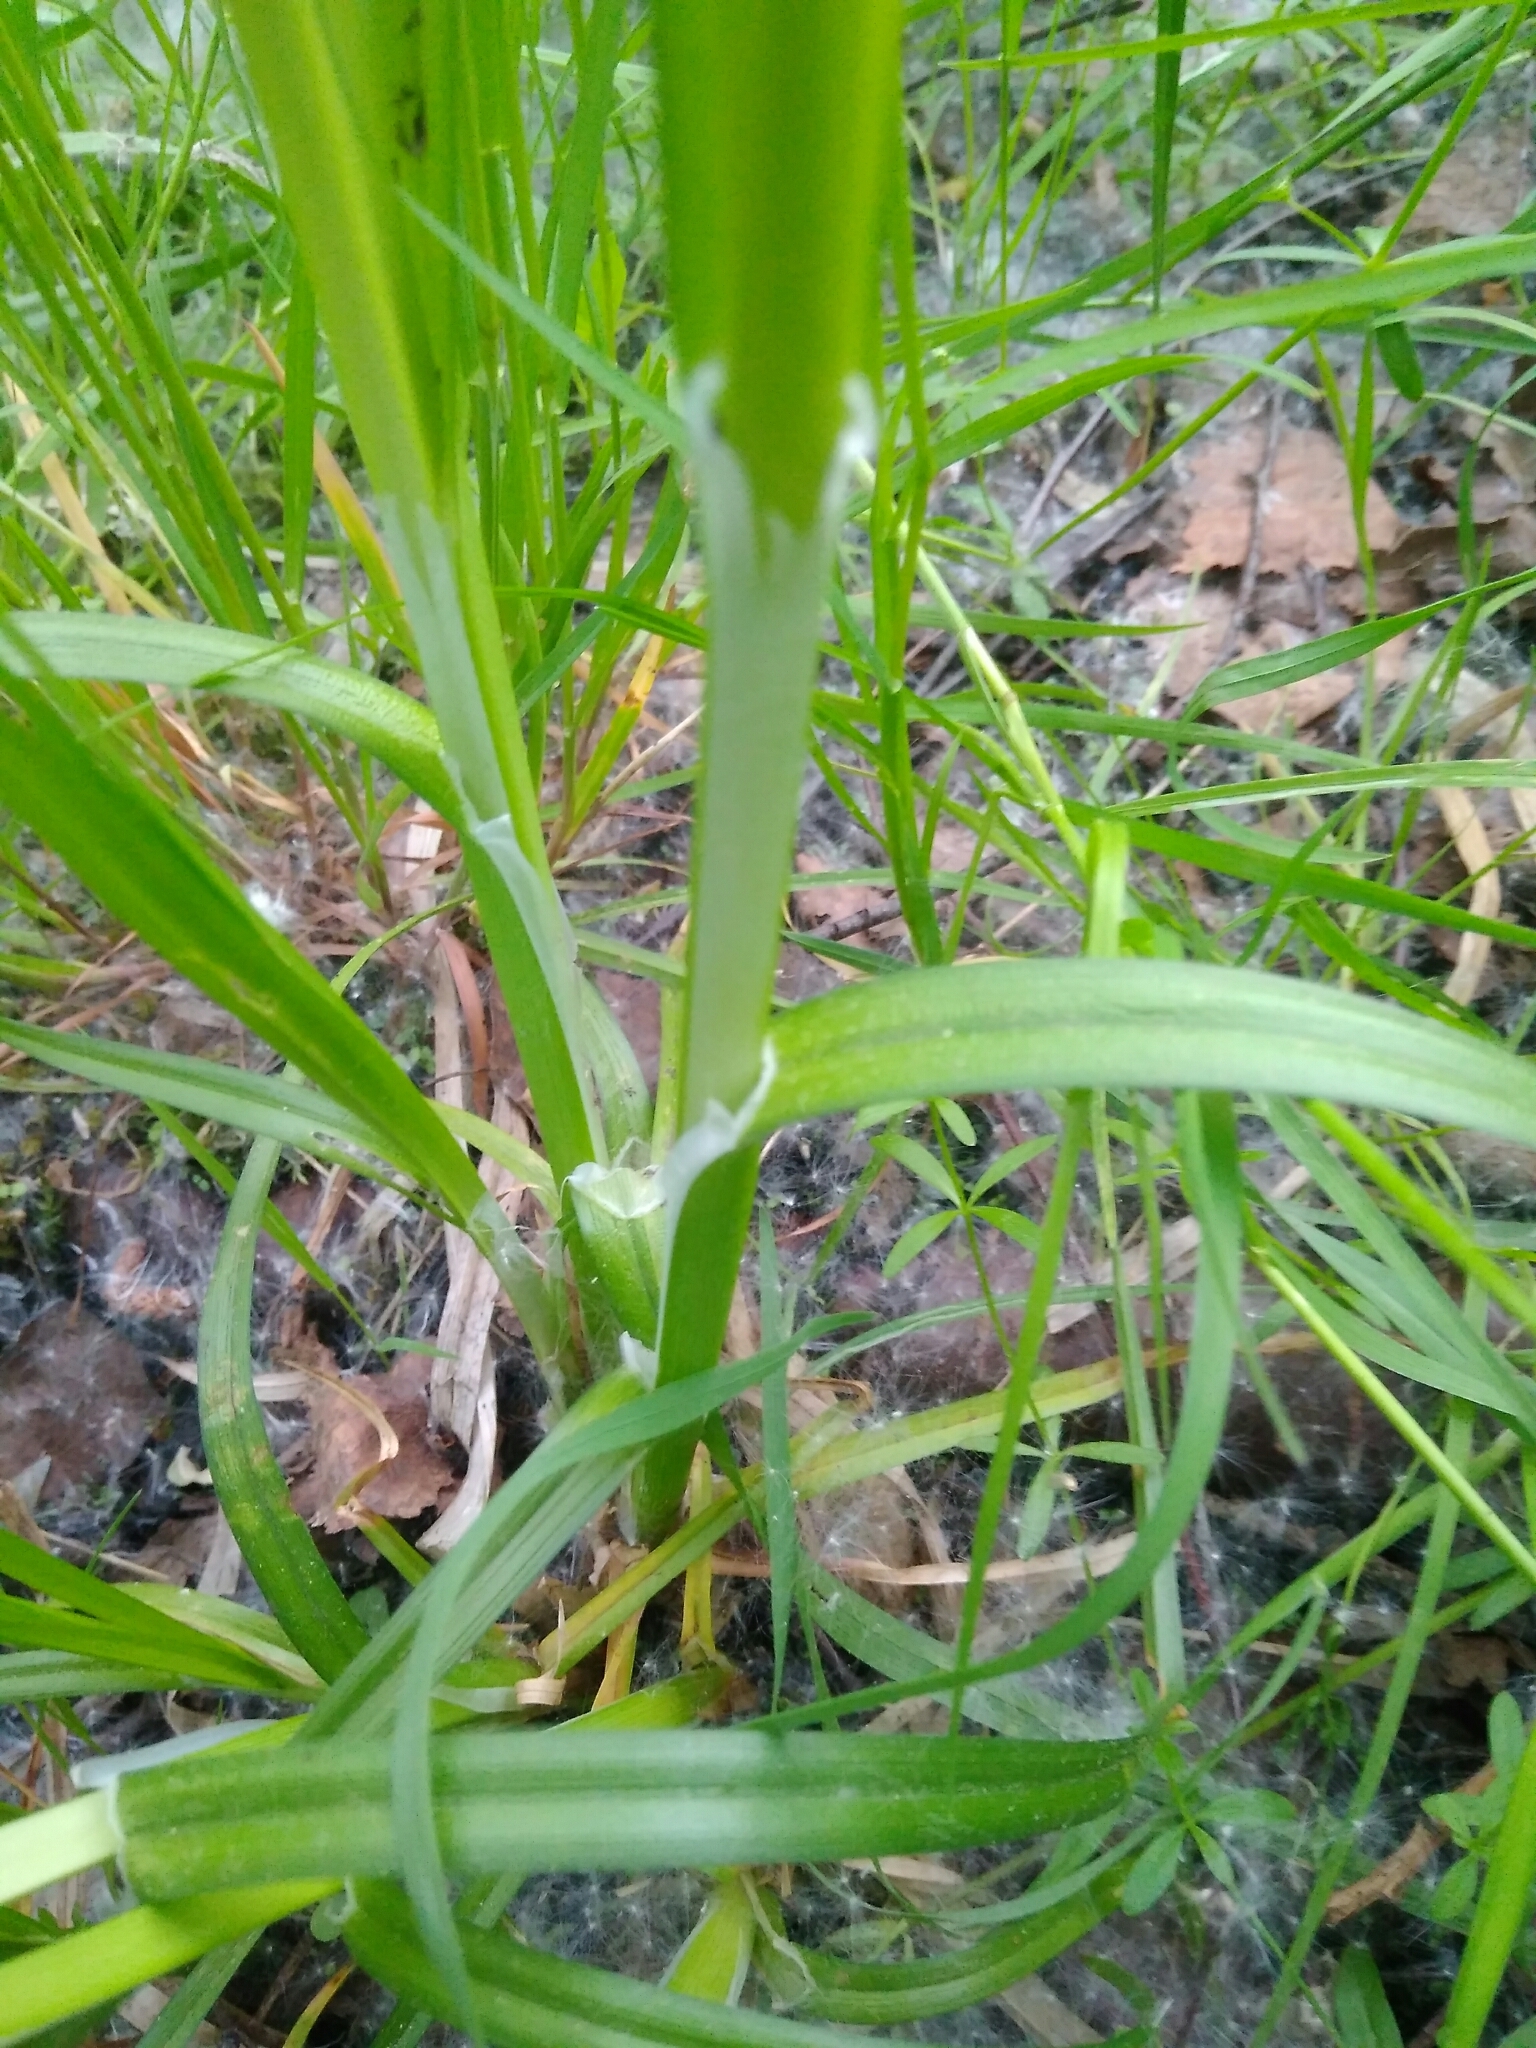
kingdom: Plantae
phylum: Tracheophyta
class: Liliopsida
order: Poales
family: Cyperaceae
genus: Carex
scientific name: Carex vulpina
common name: True fox-sedge
